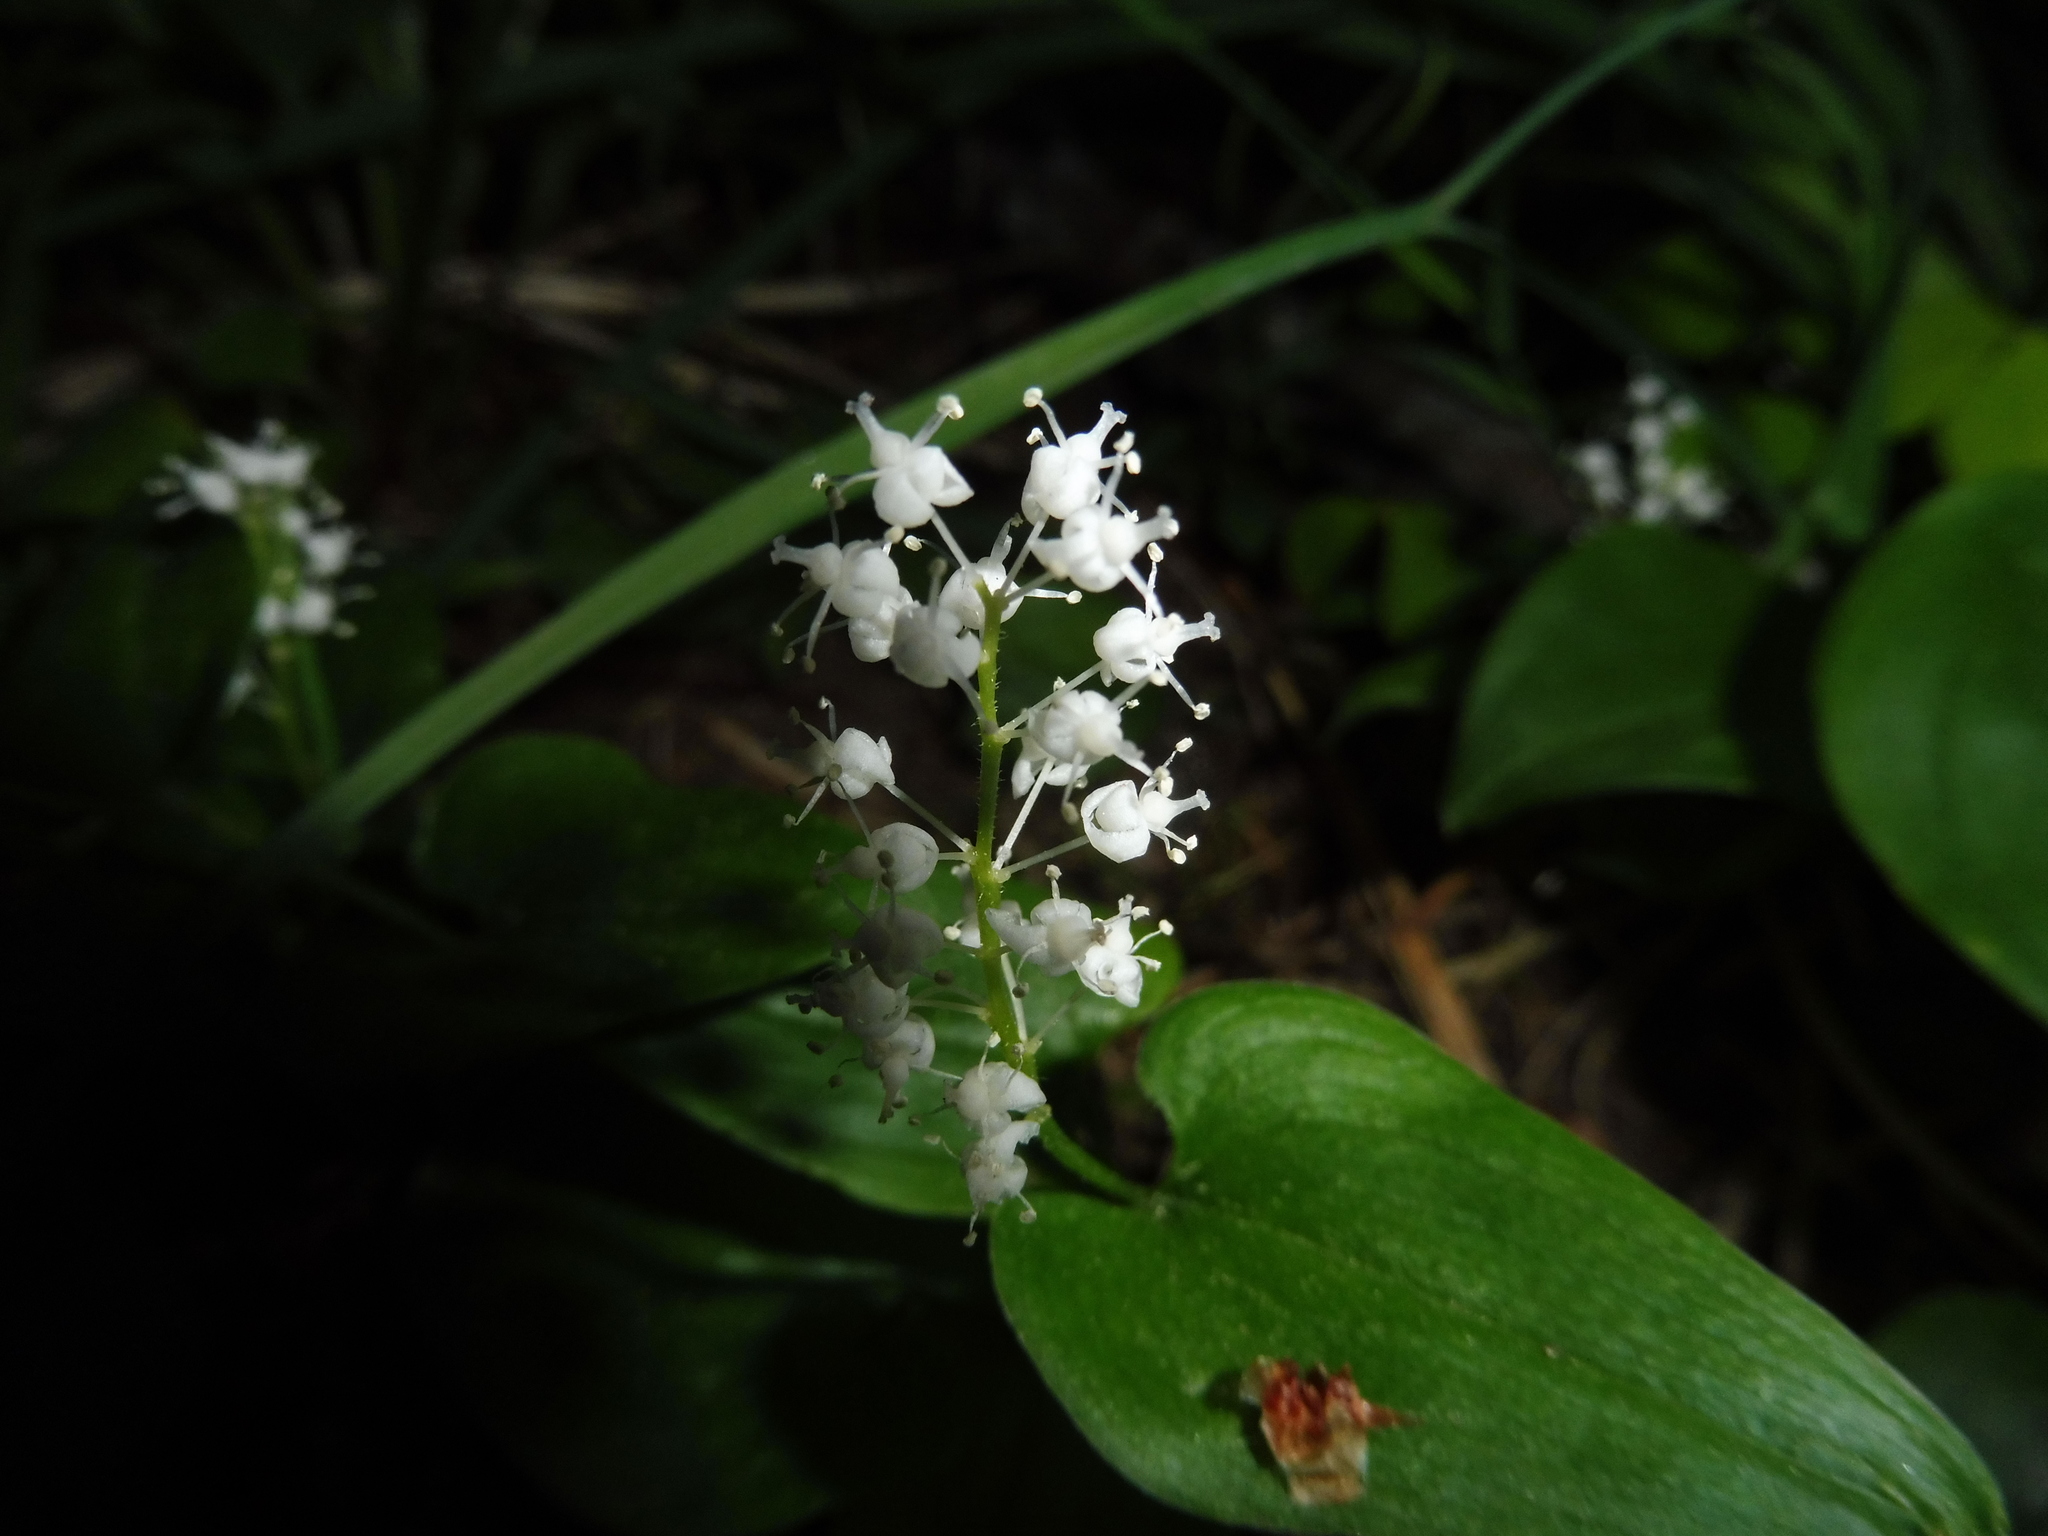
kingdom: Plantae
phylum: Tracheophyta
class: Liliopsida
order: Asparagales
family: Asparagaceae
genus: Maianthemum
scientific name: Maianthemum bifolium
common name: May lily
